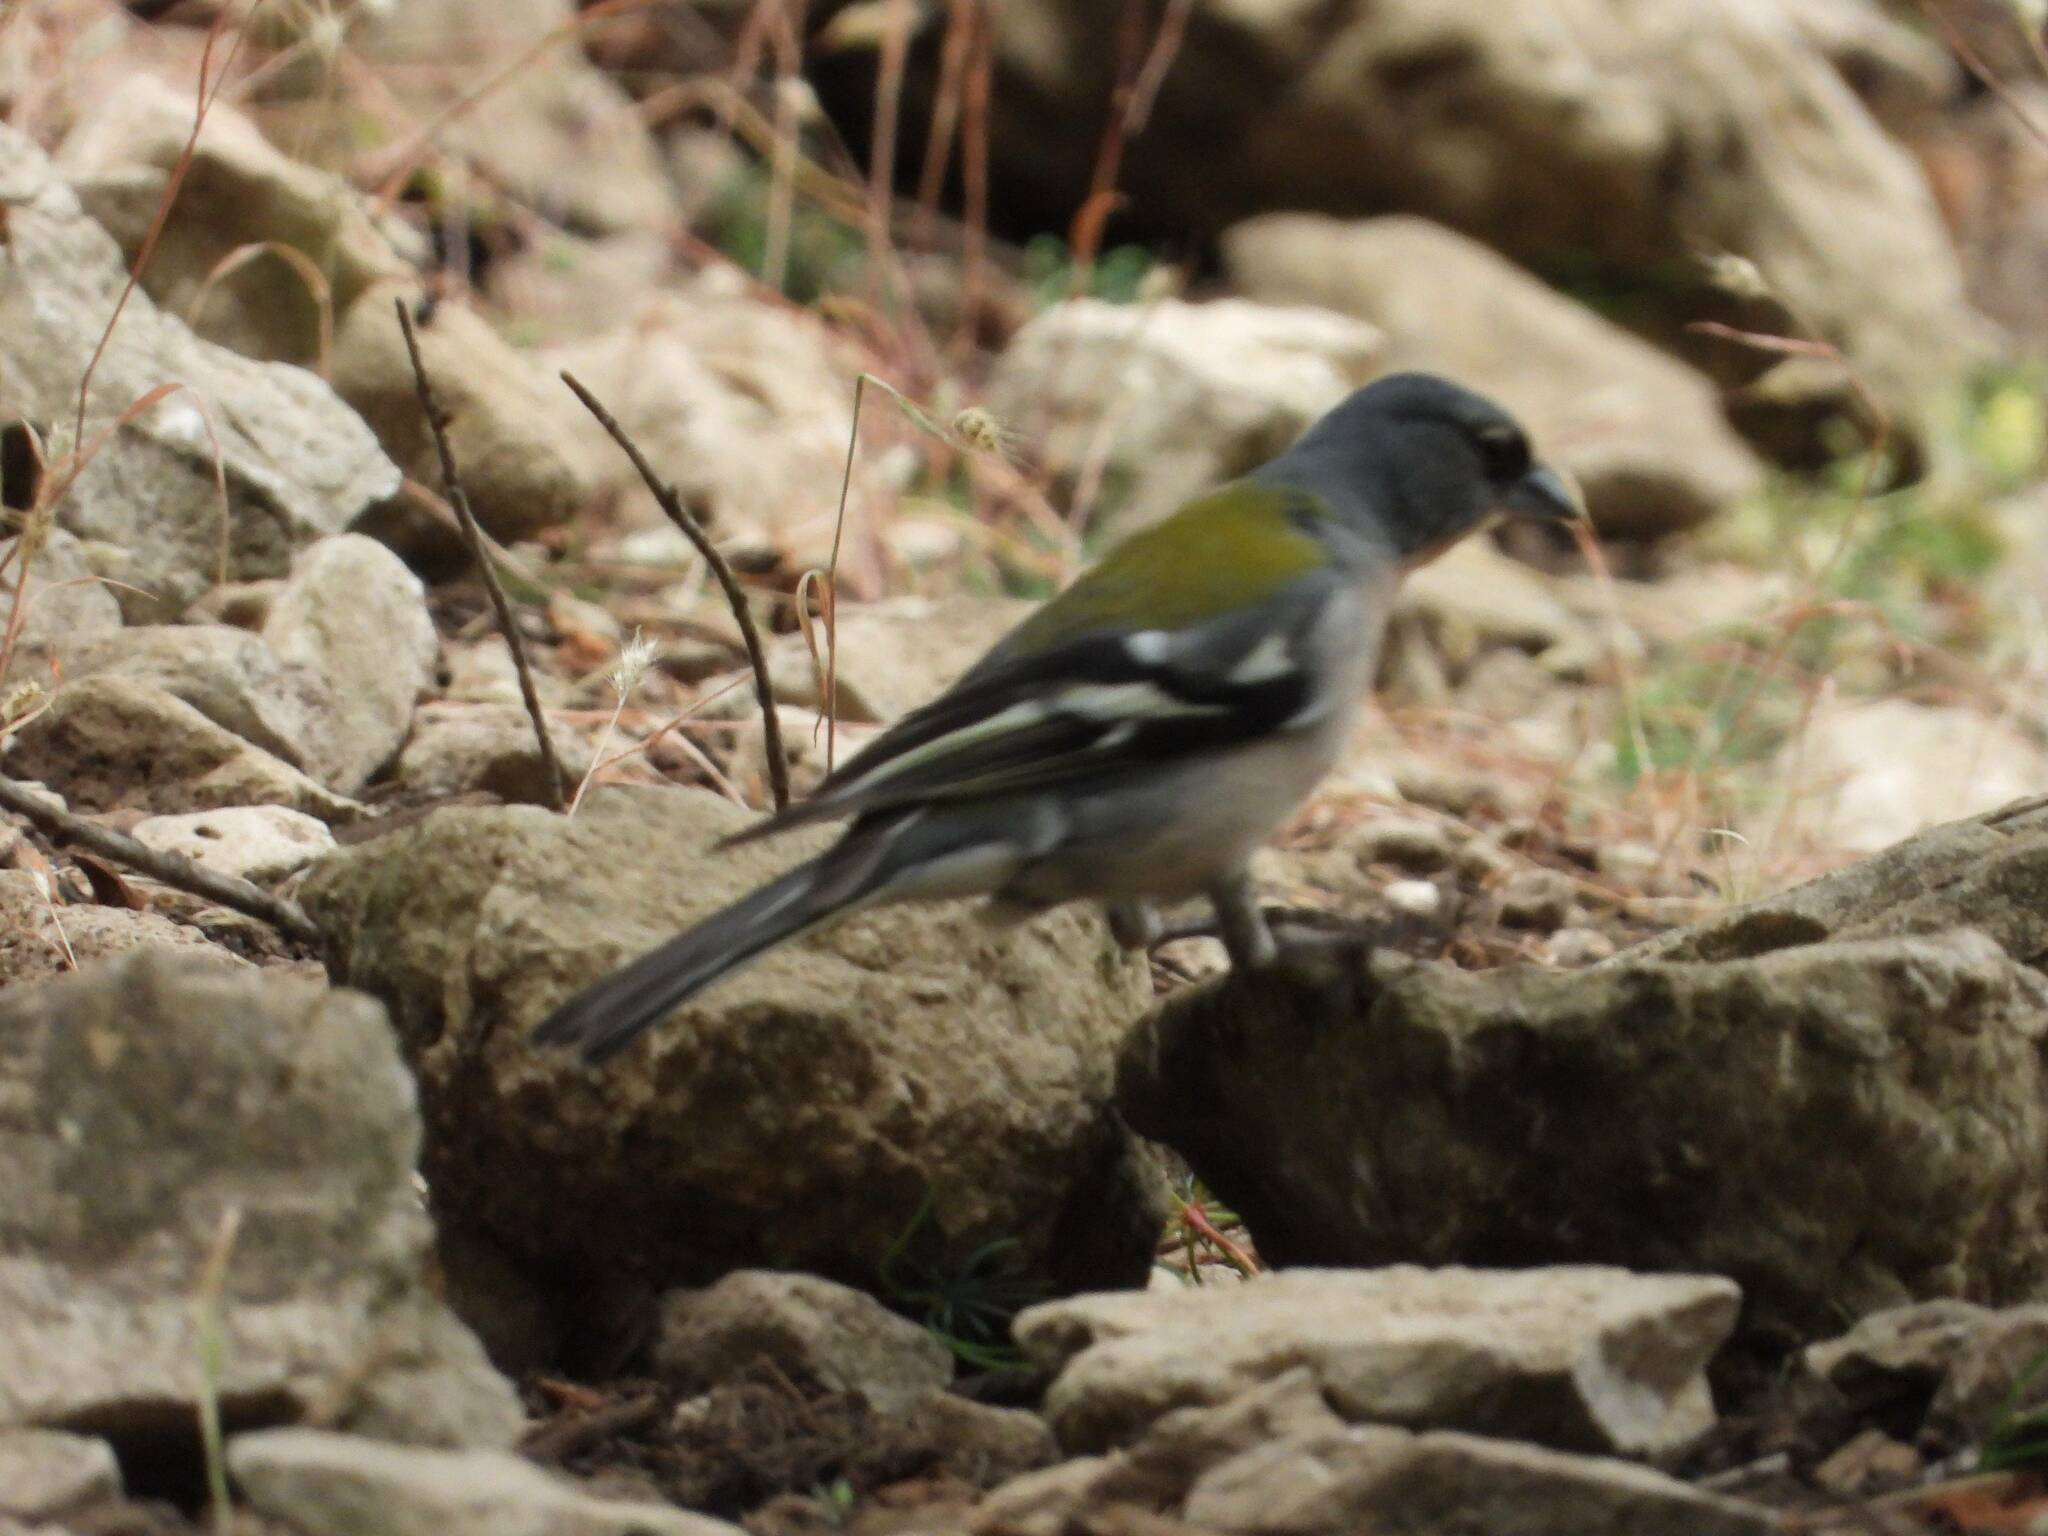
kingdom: Animalia
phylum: Chordata
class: Aves
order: Passeriformes
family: Fringillidae
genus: Fringilla
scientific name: Fringilla spodiogenys
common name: African chaffinch
